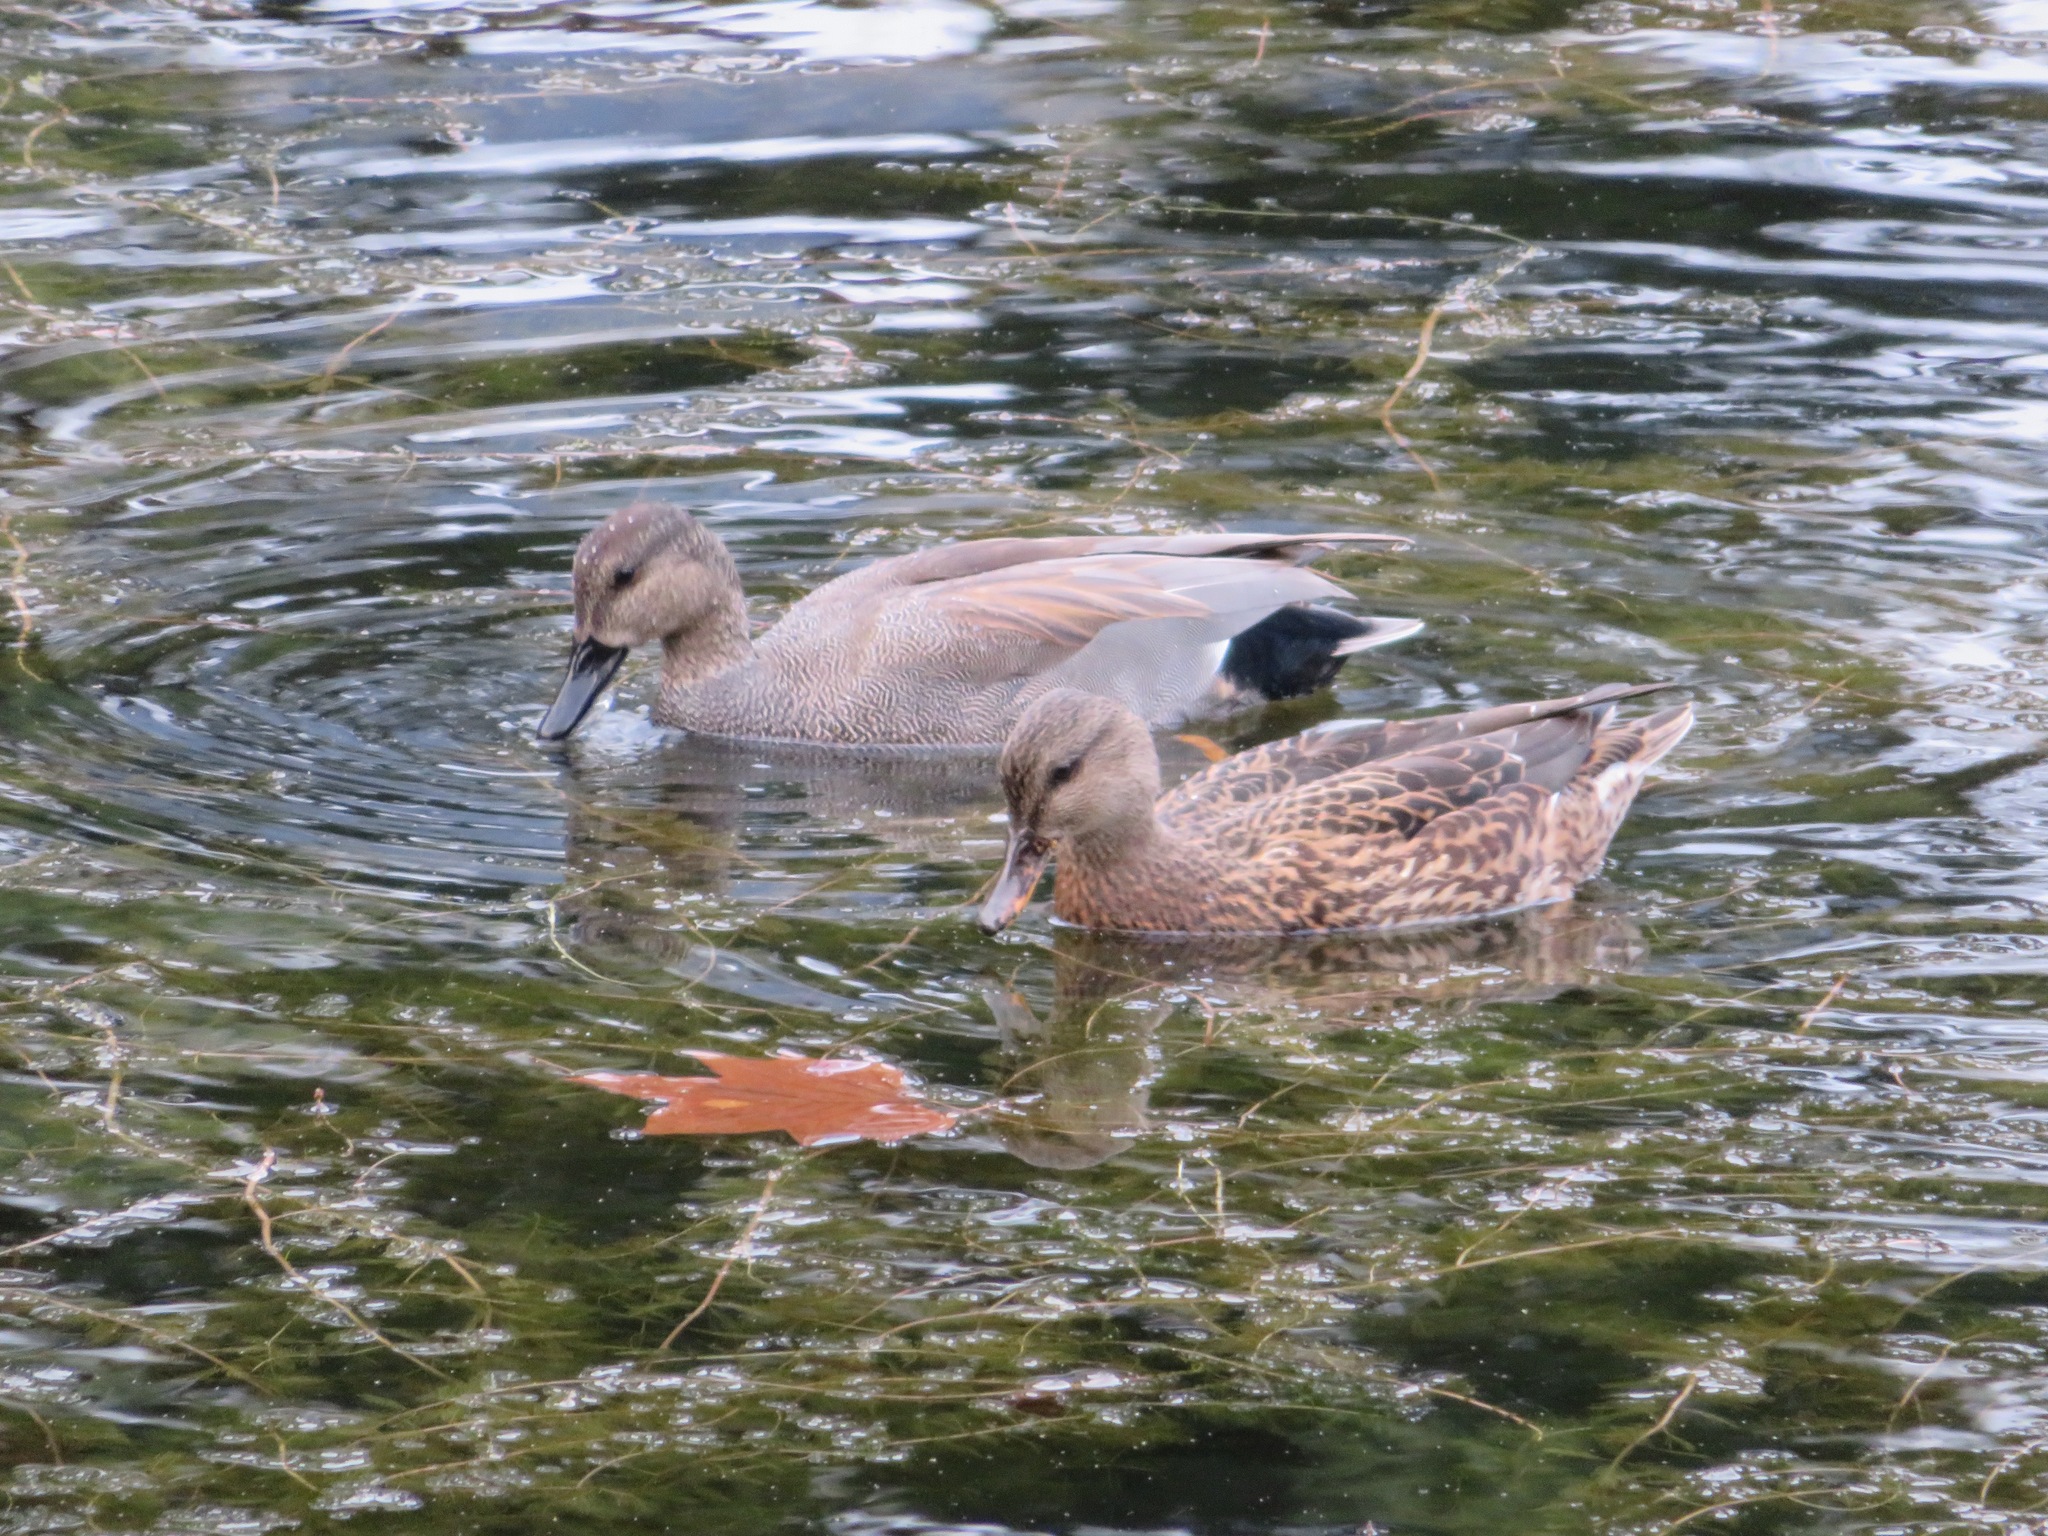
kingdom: Animalia
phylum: Chordata
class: Aves
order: Anseriformes
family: Anatidae
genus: Mareca
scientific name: Mareca strepera
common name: Gadwall
